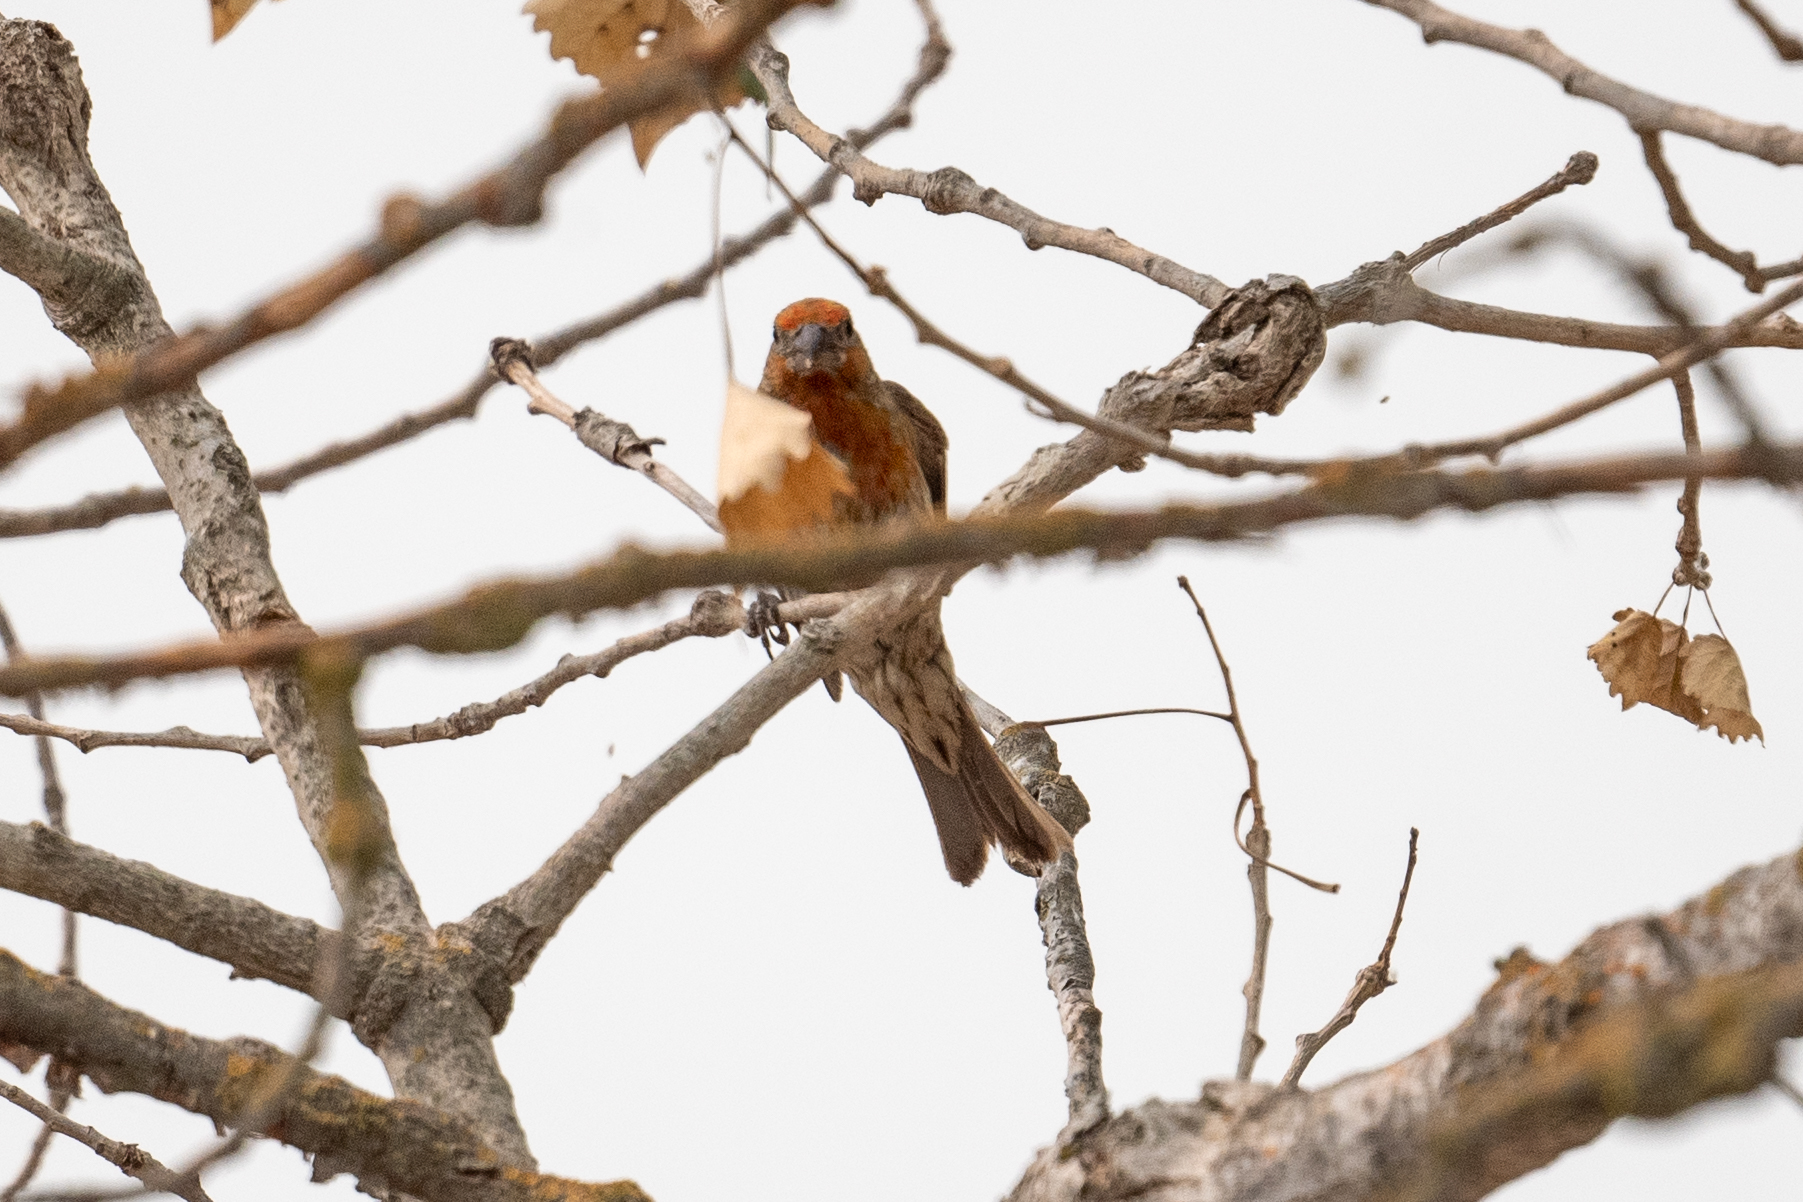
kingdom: Animalia
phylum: Chordata
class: Aves
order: Passeriformes
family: Fringillidae
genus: Haemorhous
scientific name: Haemorhous mexicanus
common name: House finch
